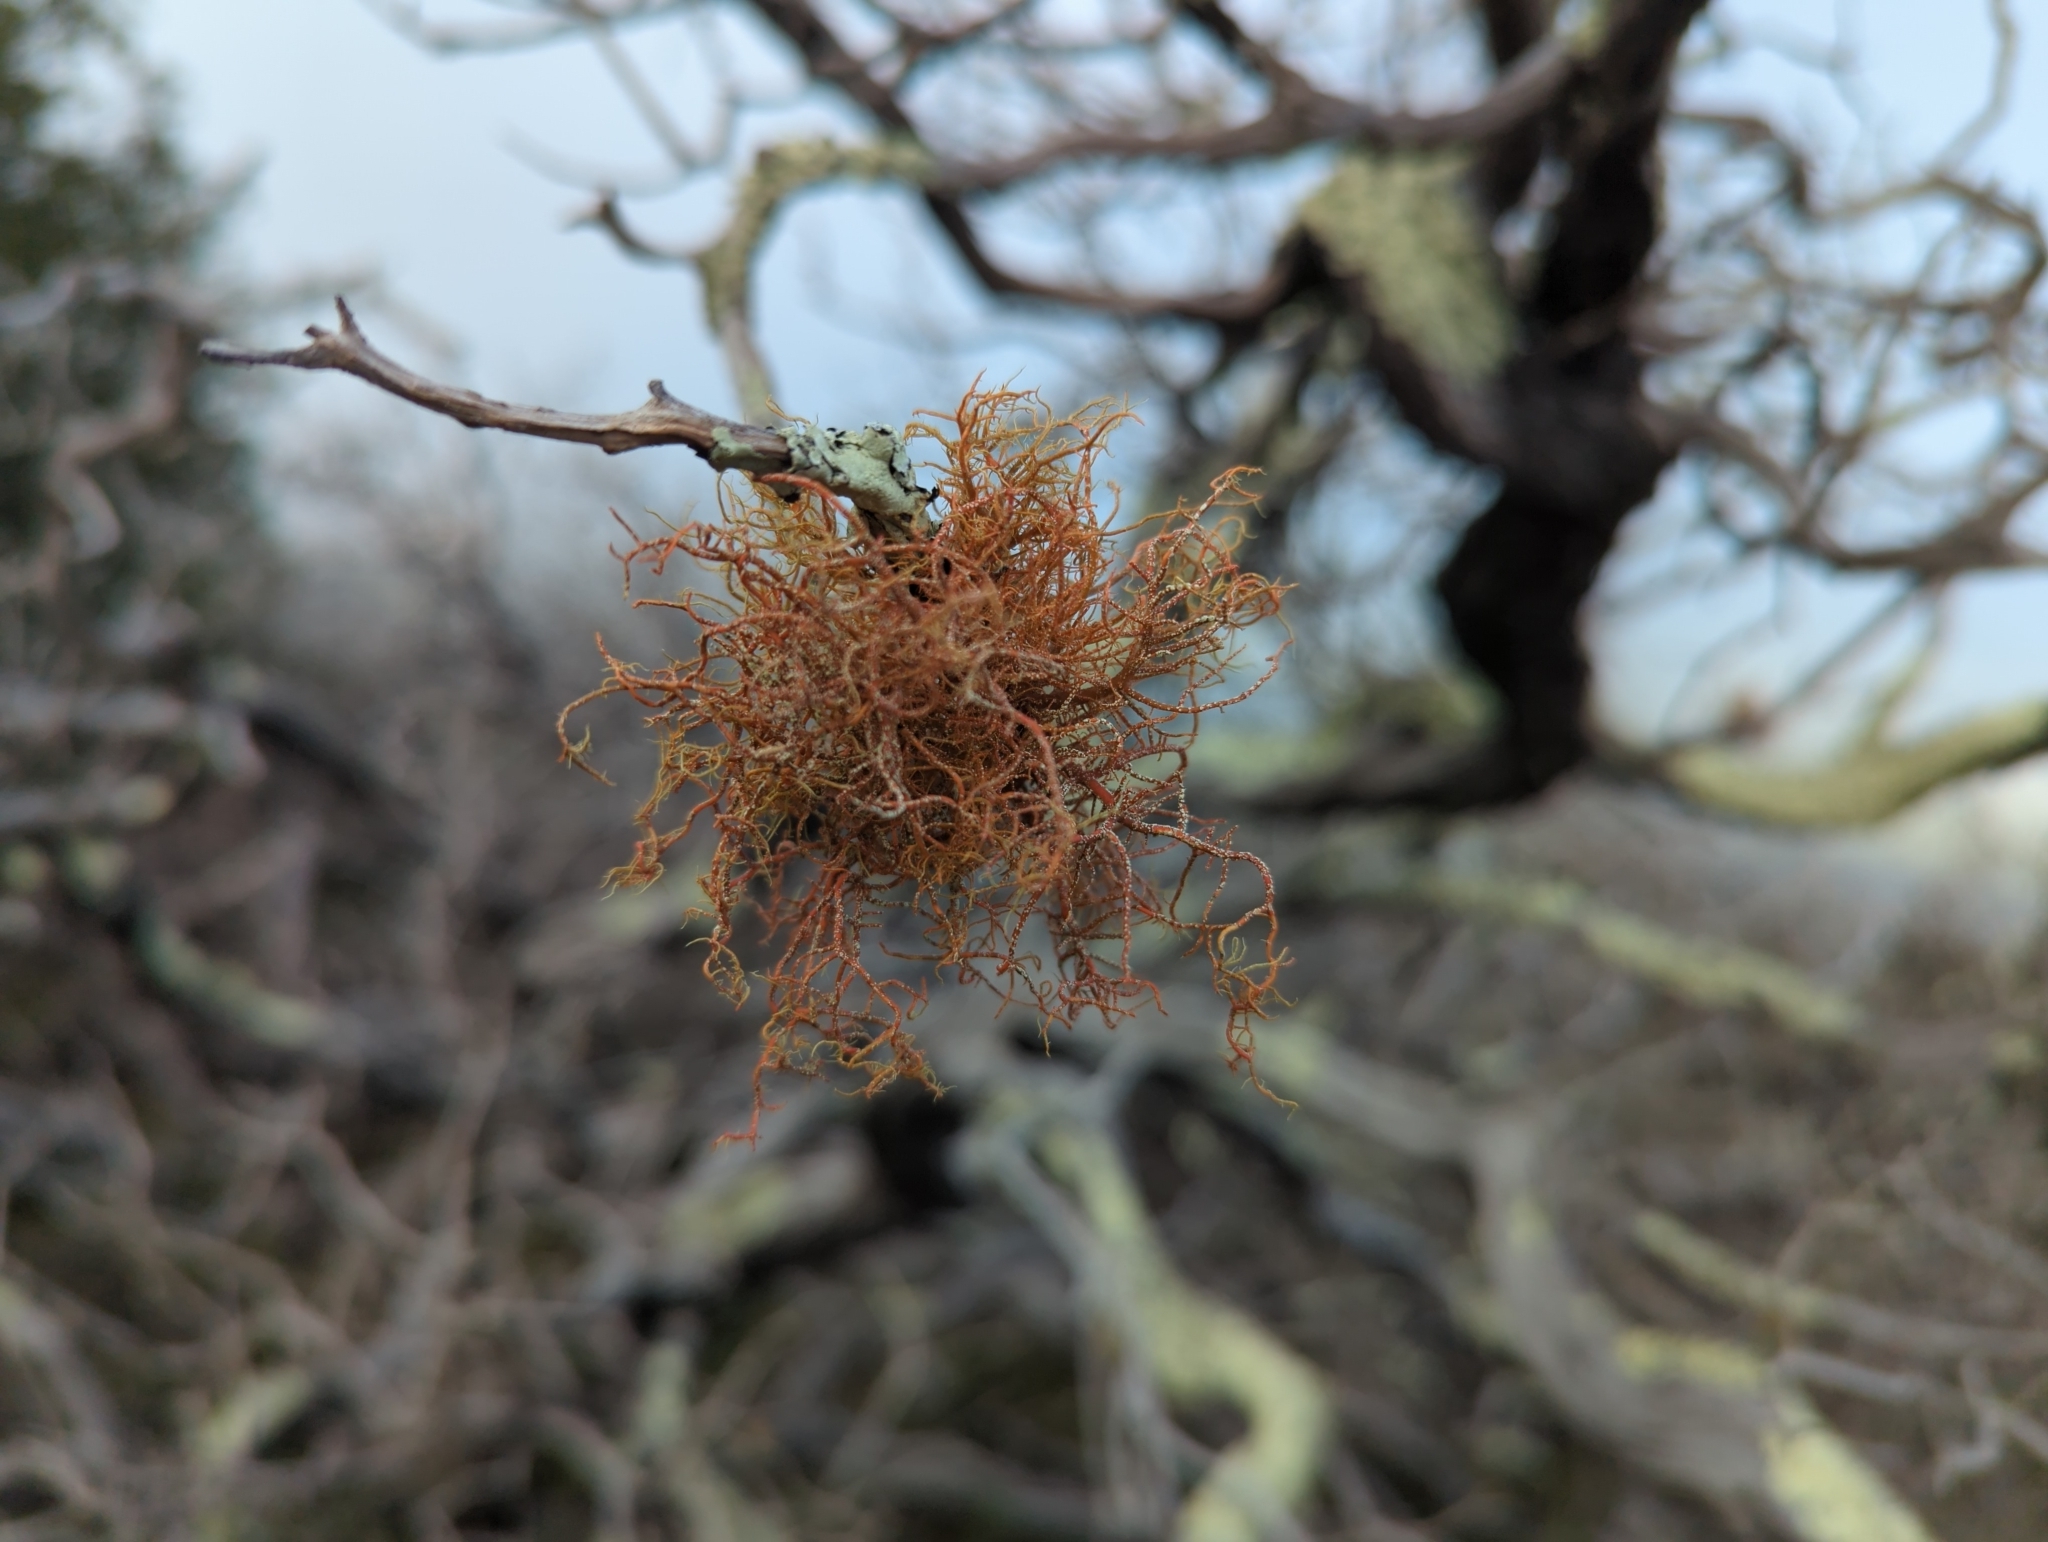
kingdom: Fungi
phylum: Ascomycota
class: Lecanoromycetes
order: Lecanorales
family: Parmeliaceae
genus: Usnea
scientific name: Usnea rubicunda
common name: Red beard lichen
